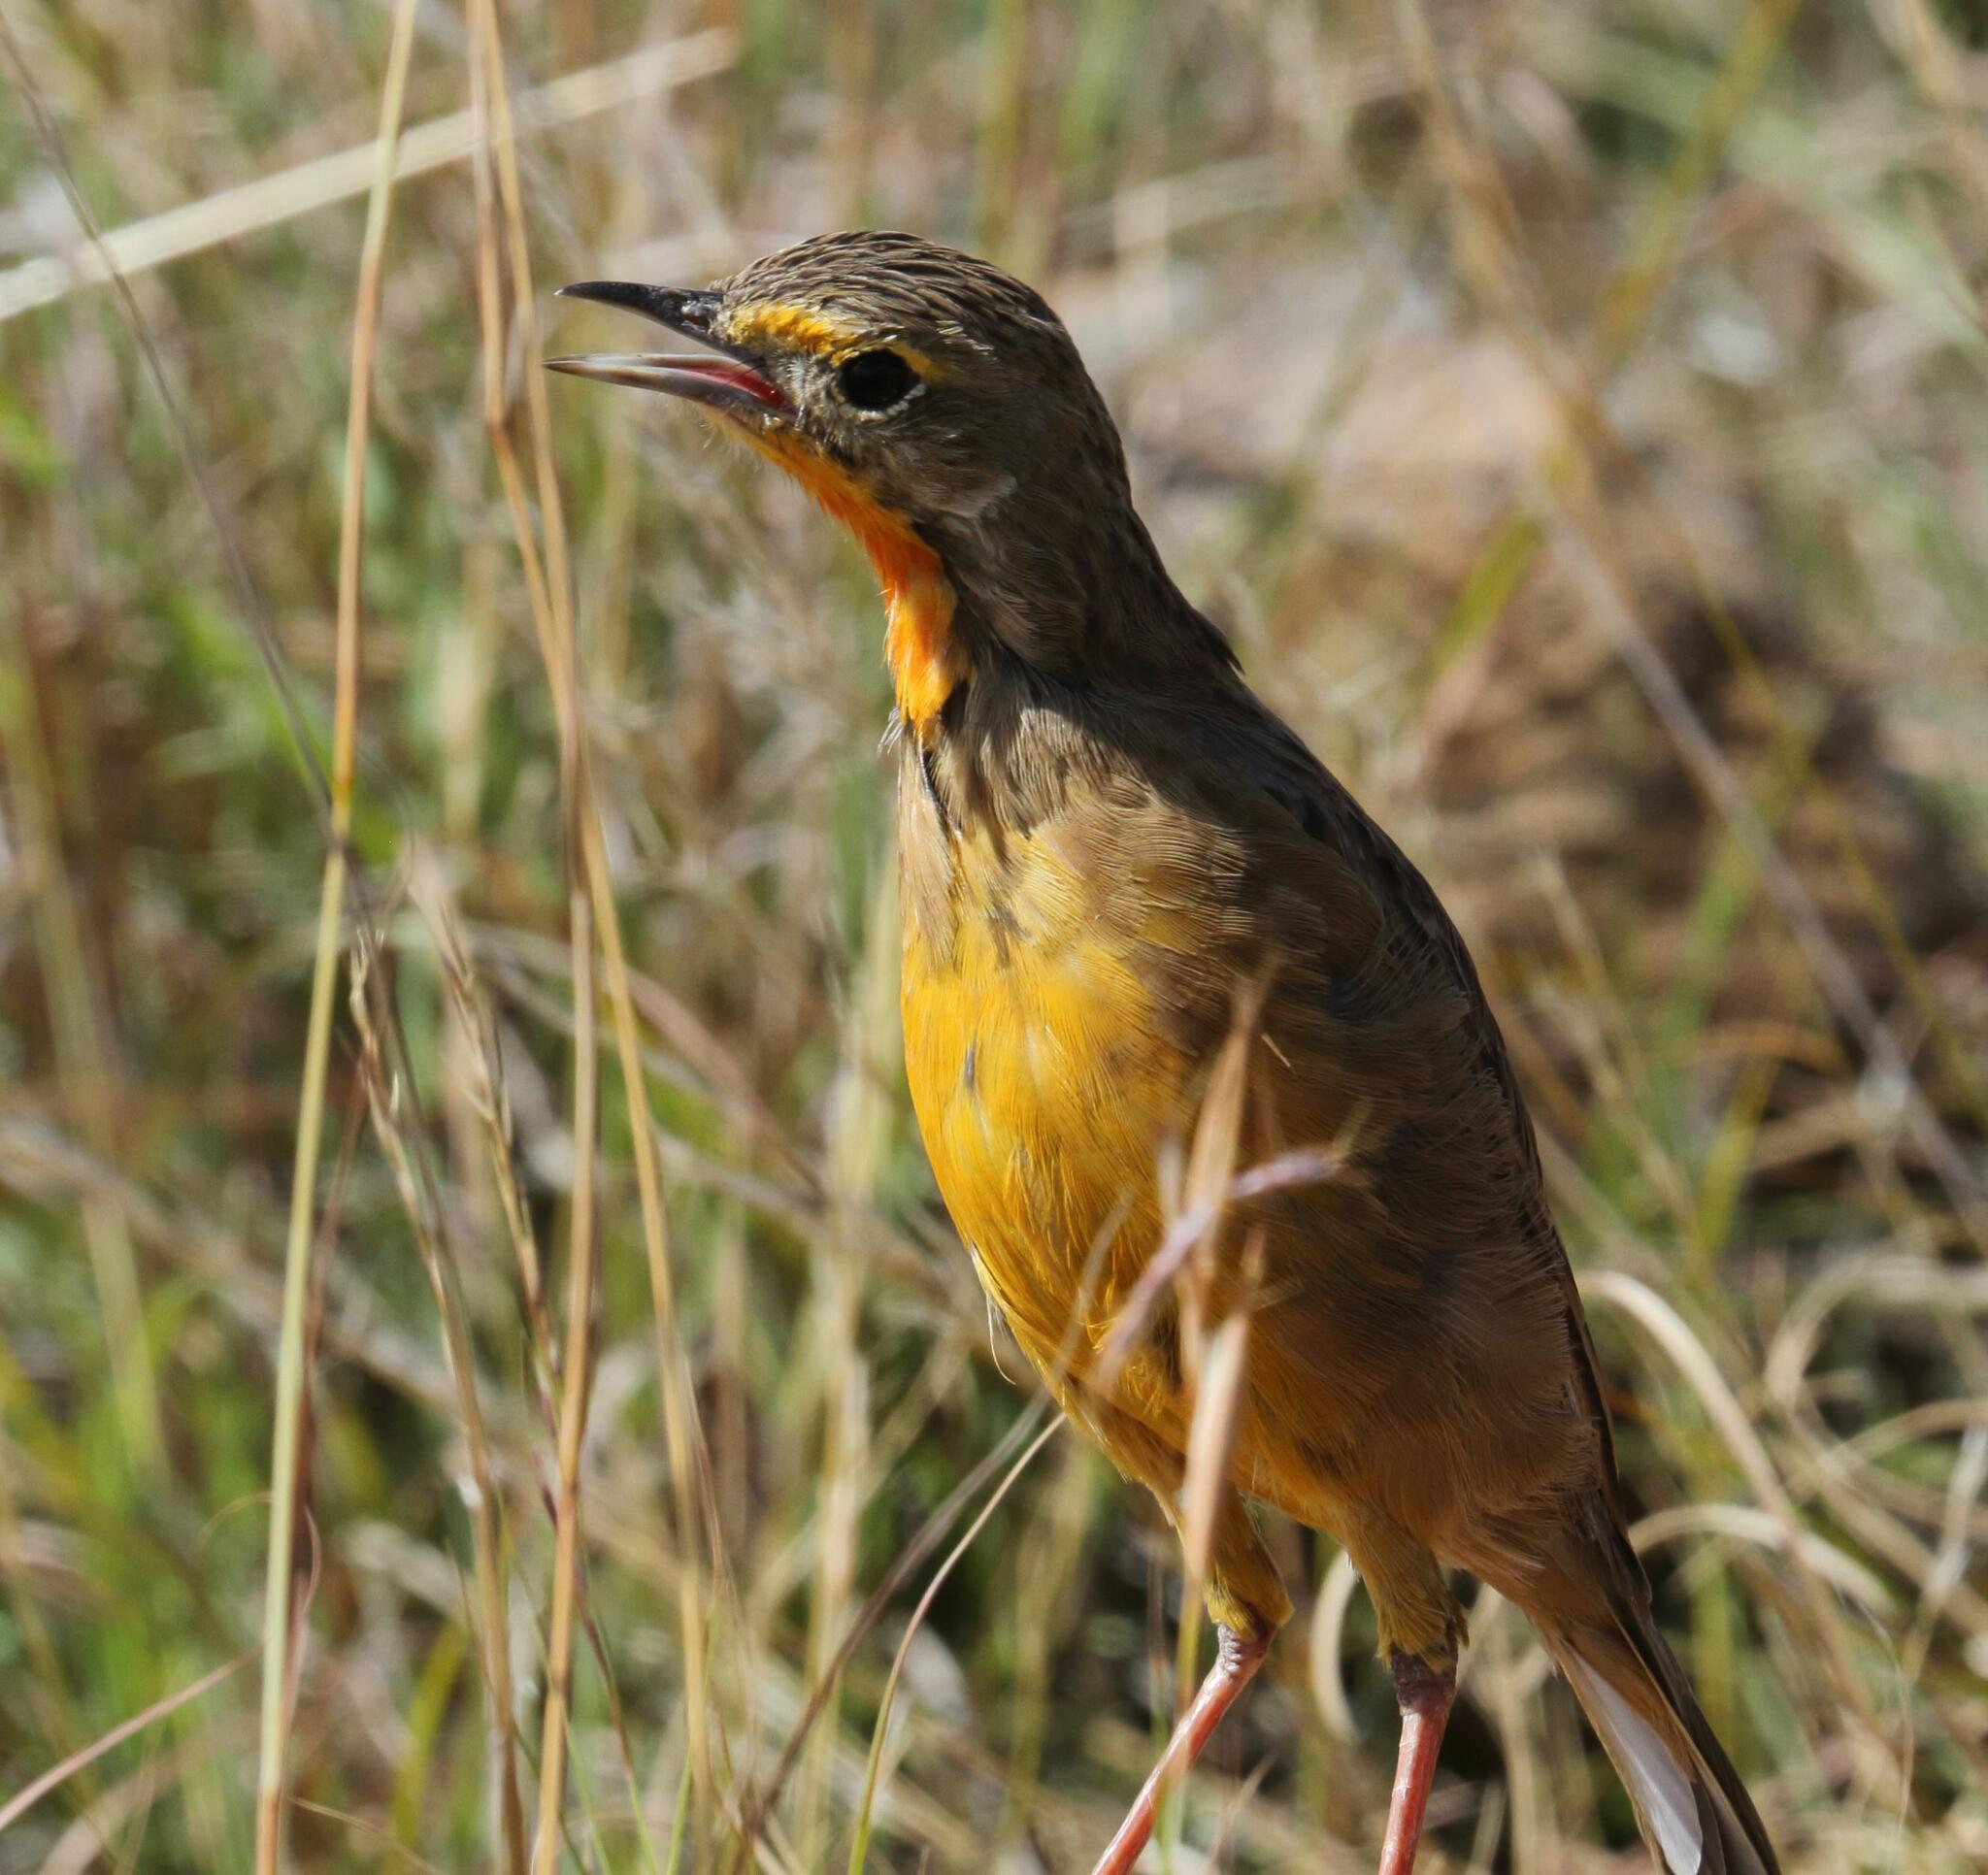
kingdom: Animalia
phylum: Chordata
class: Aves
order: Passeriformes
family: Motacillidae
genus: Macronyx
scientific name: Macronyx capensis
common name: Cape longclaw
